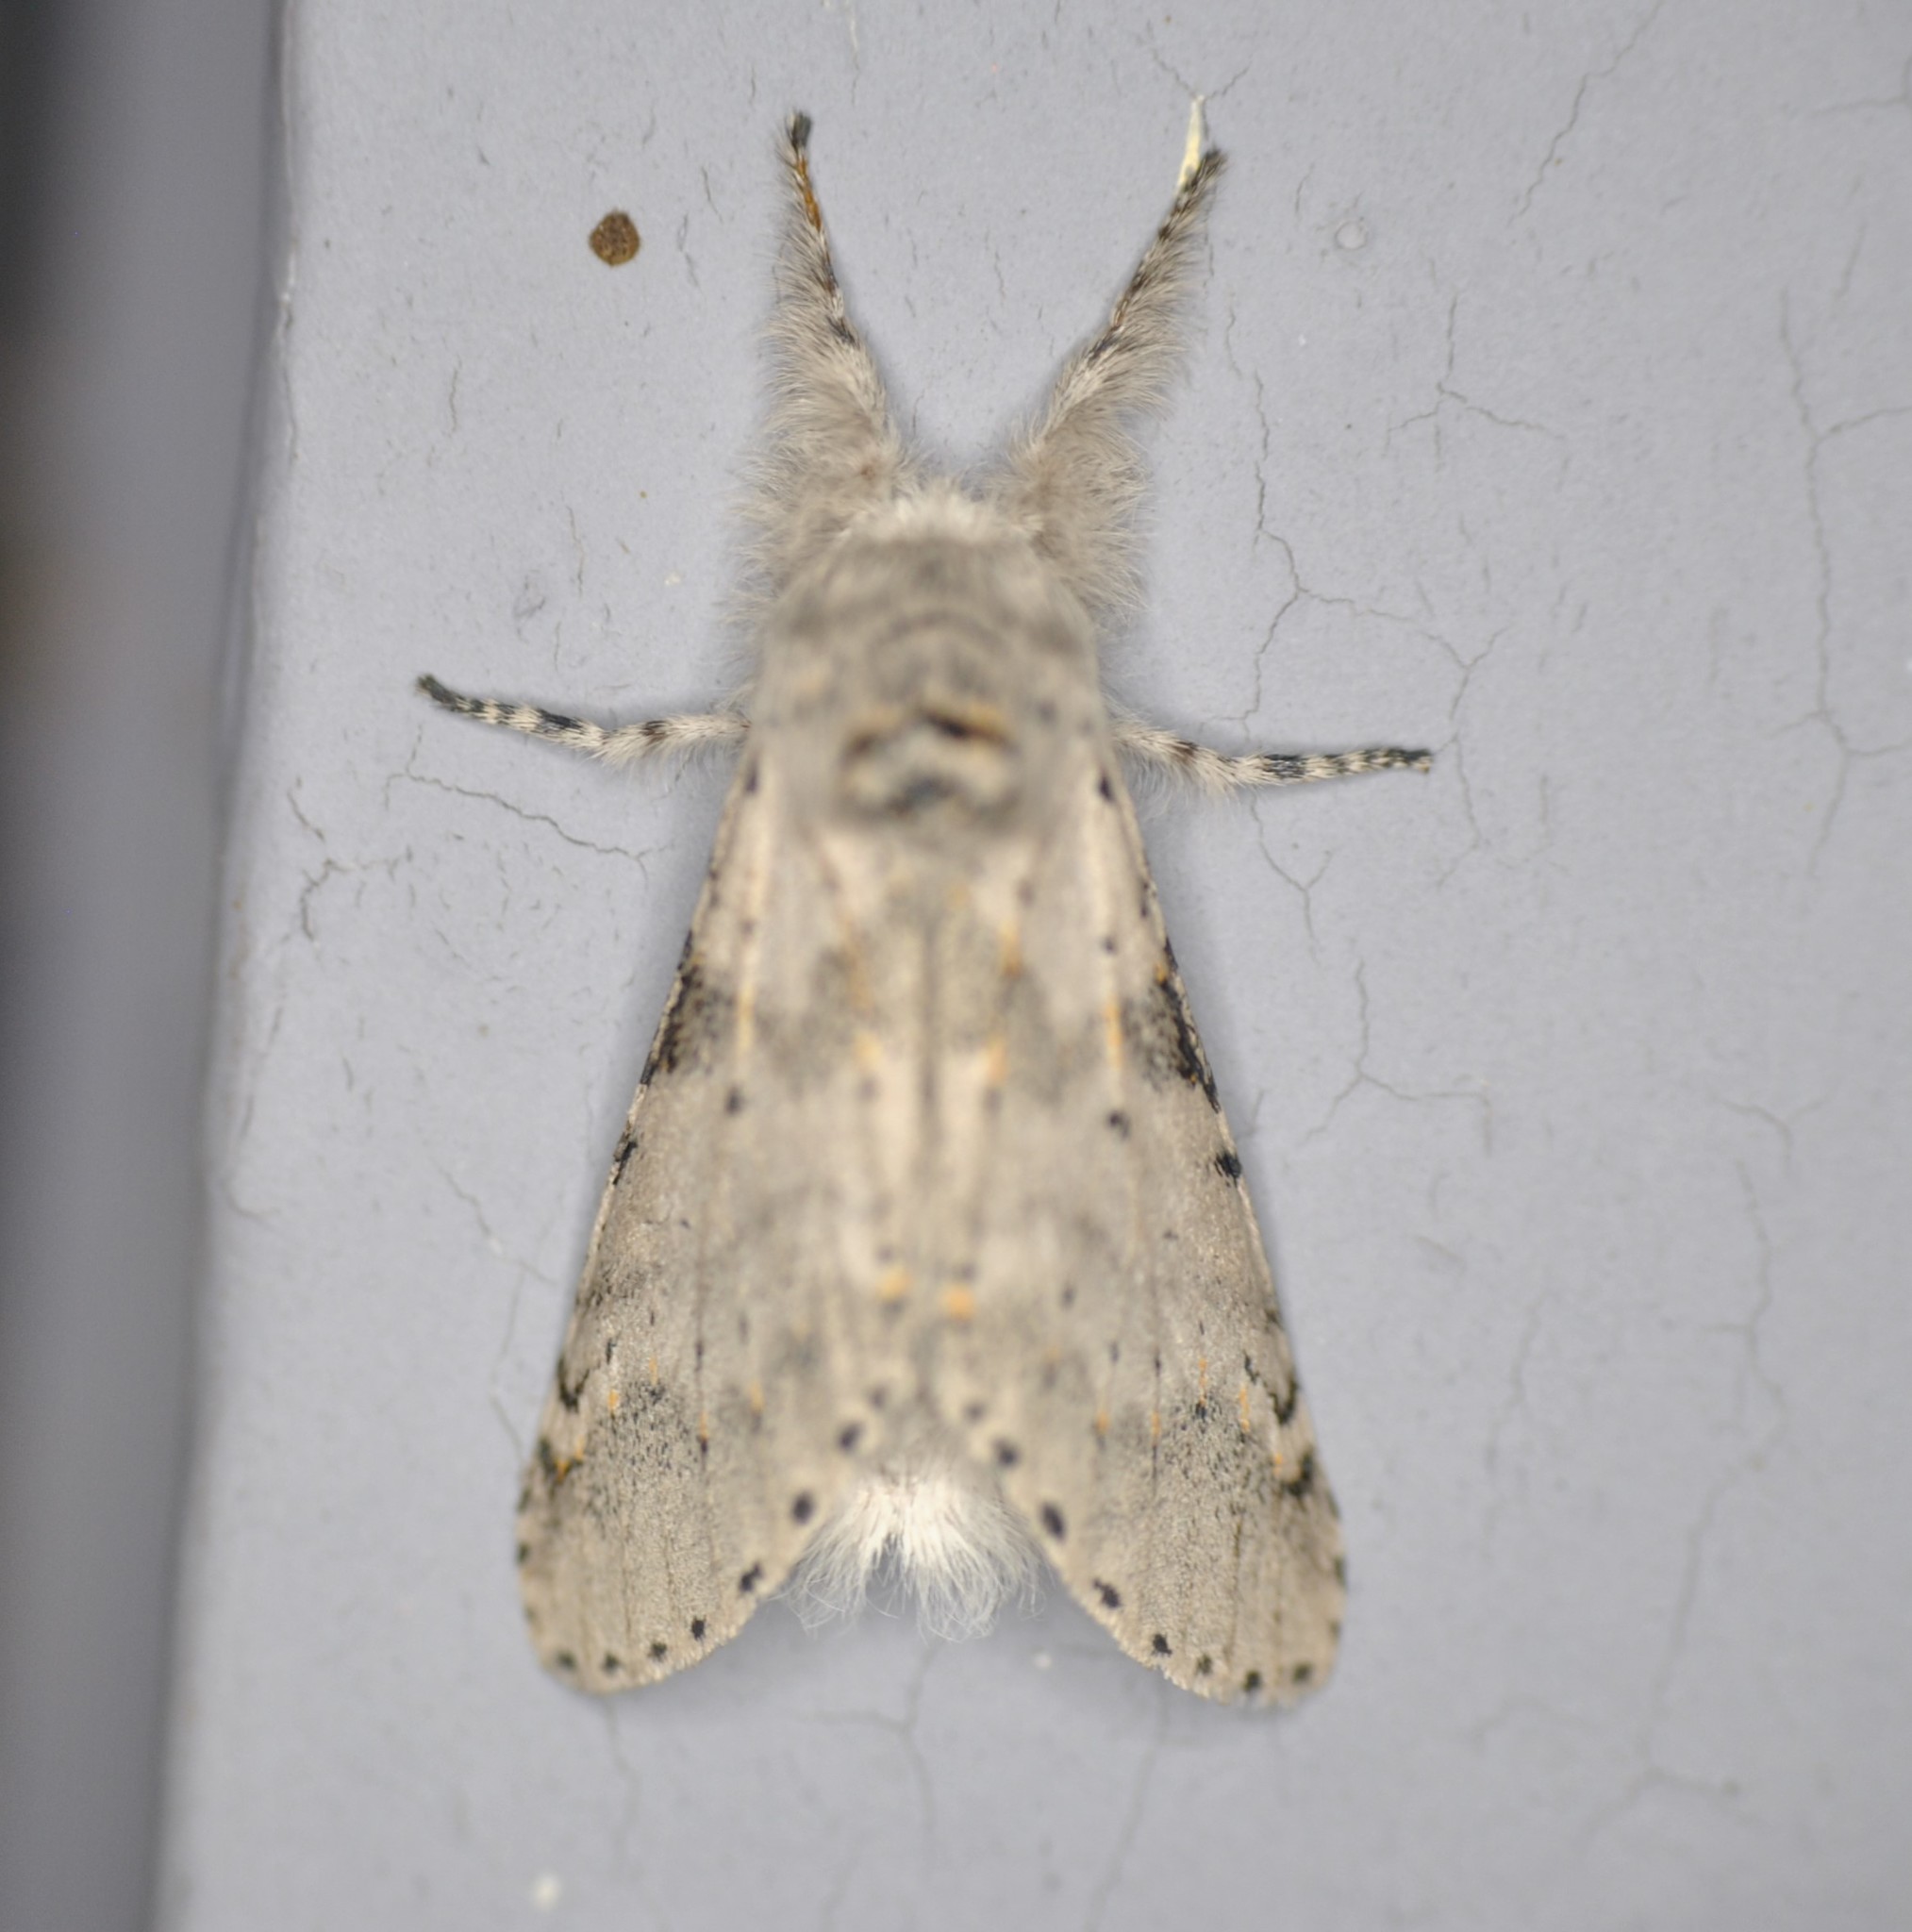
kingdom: Animalia
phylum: Arthropoda
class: Insecta
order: Lepidoptera
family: Notodontidae
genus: Furcula
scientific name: Furcula cinerea
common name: Gray furcula
